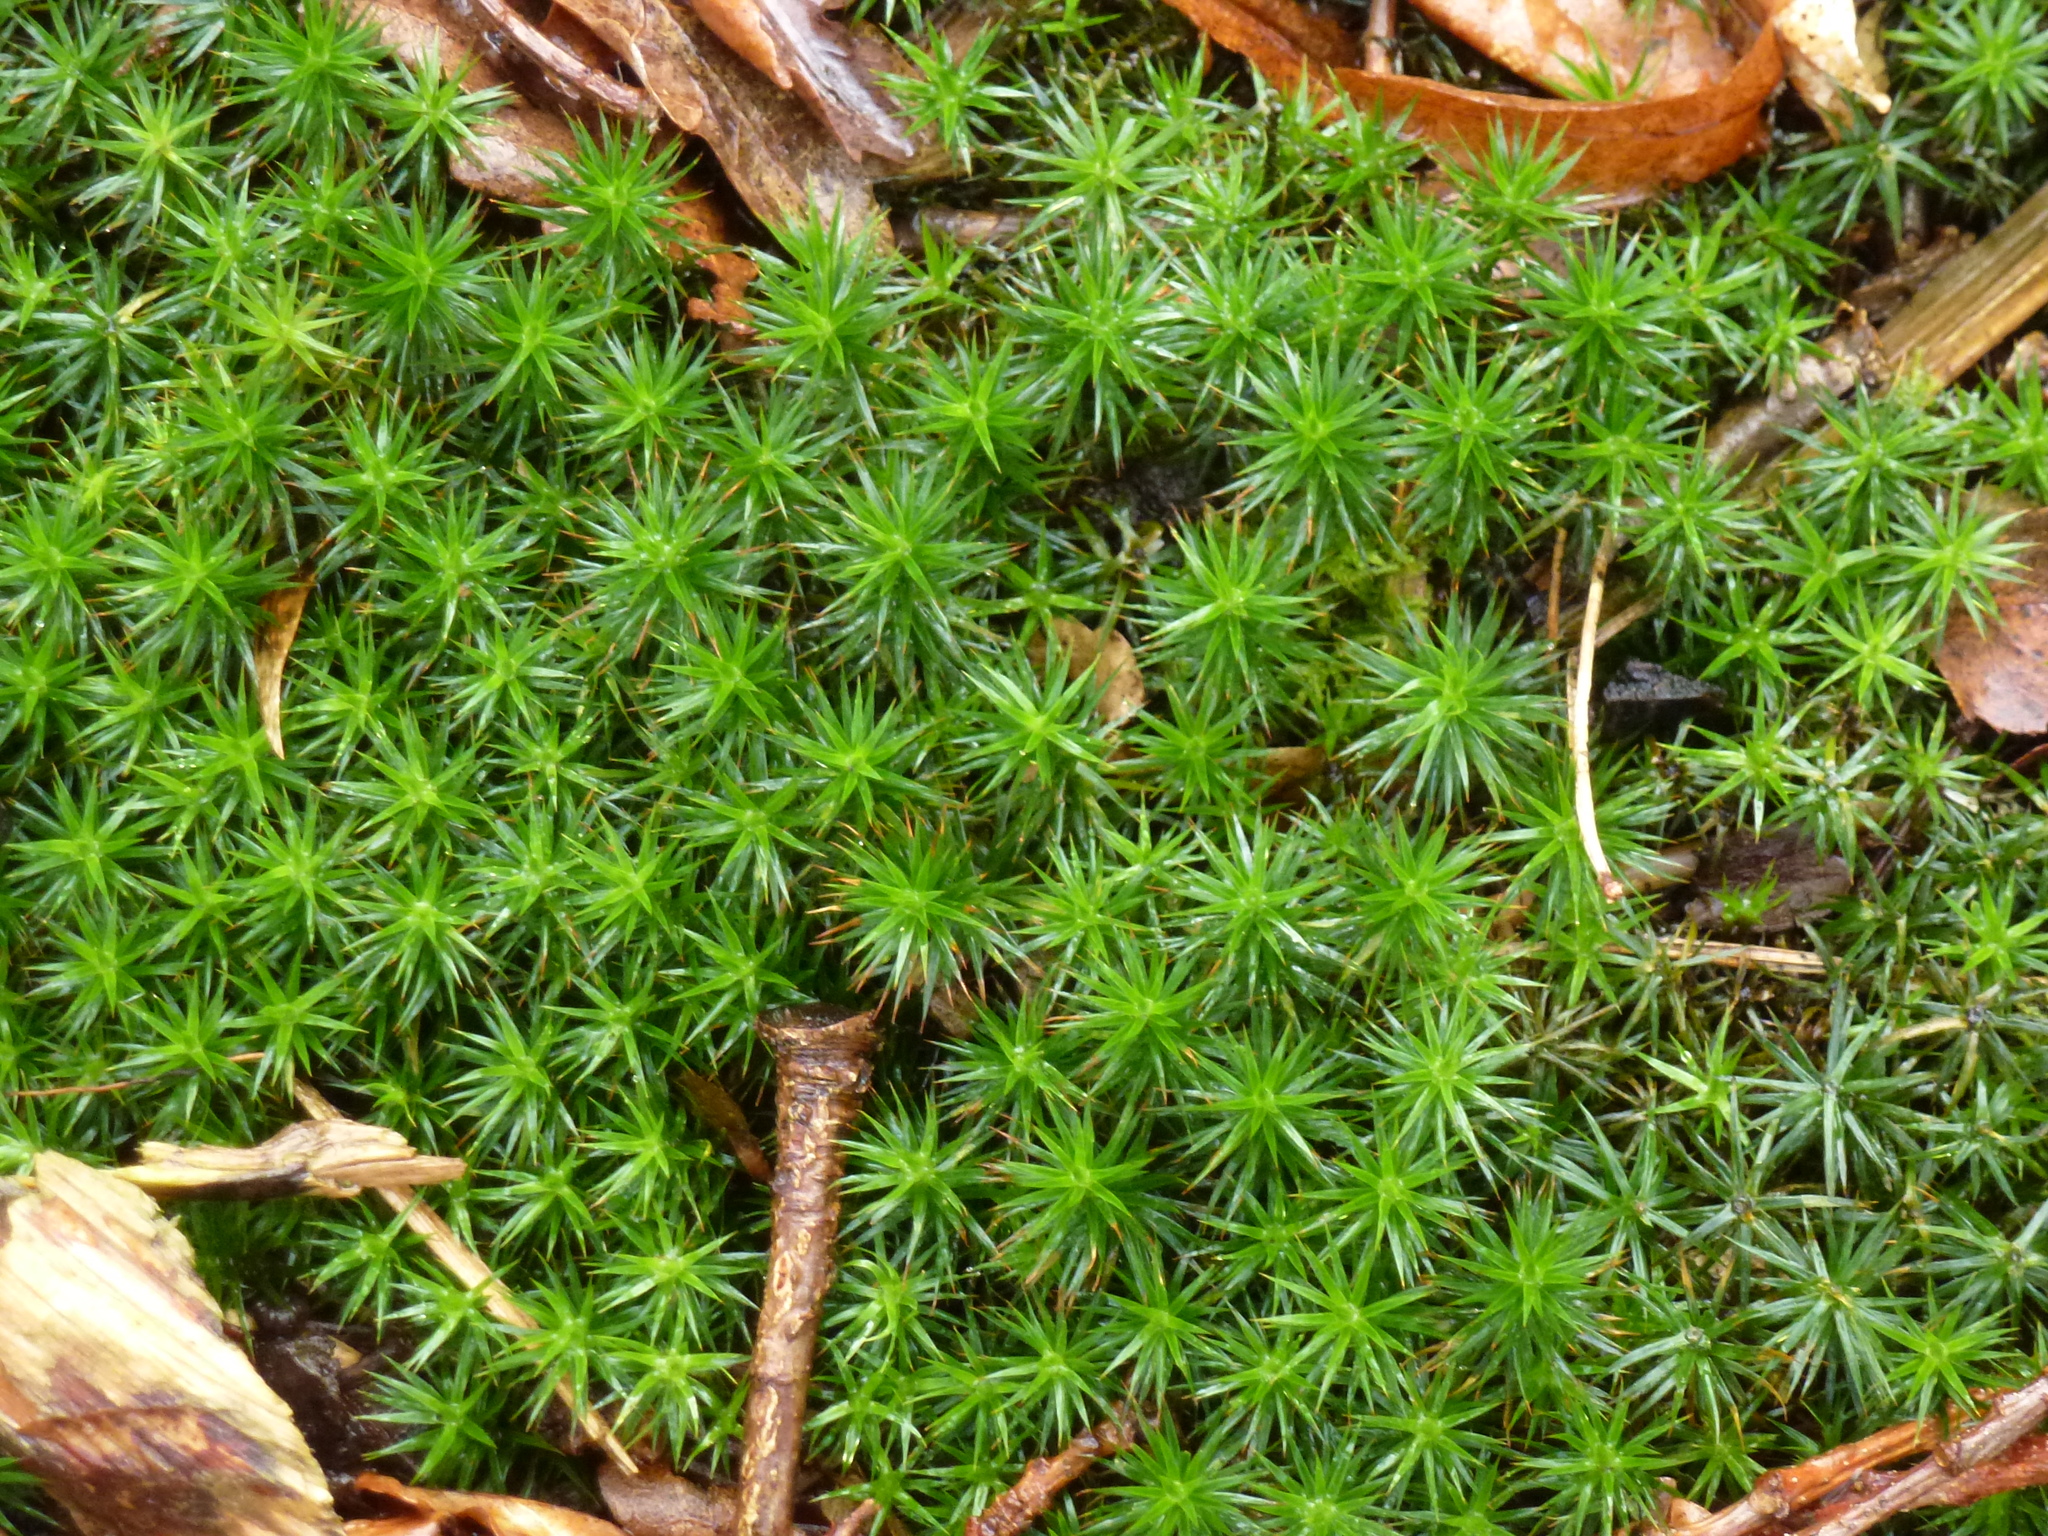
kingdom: Plantae
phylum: Bryophyta
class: Polytrichopsida
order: Polytrichales
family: Polytrichaceae
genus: Polytrichum
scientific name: Polytrichum formosum
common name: Bank haircap moss
